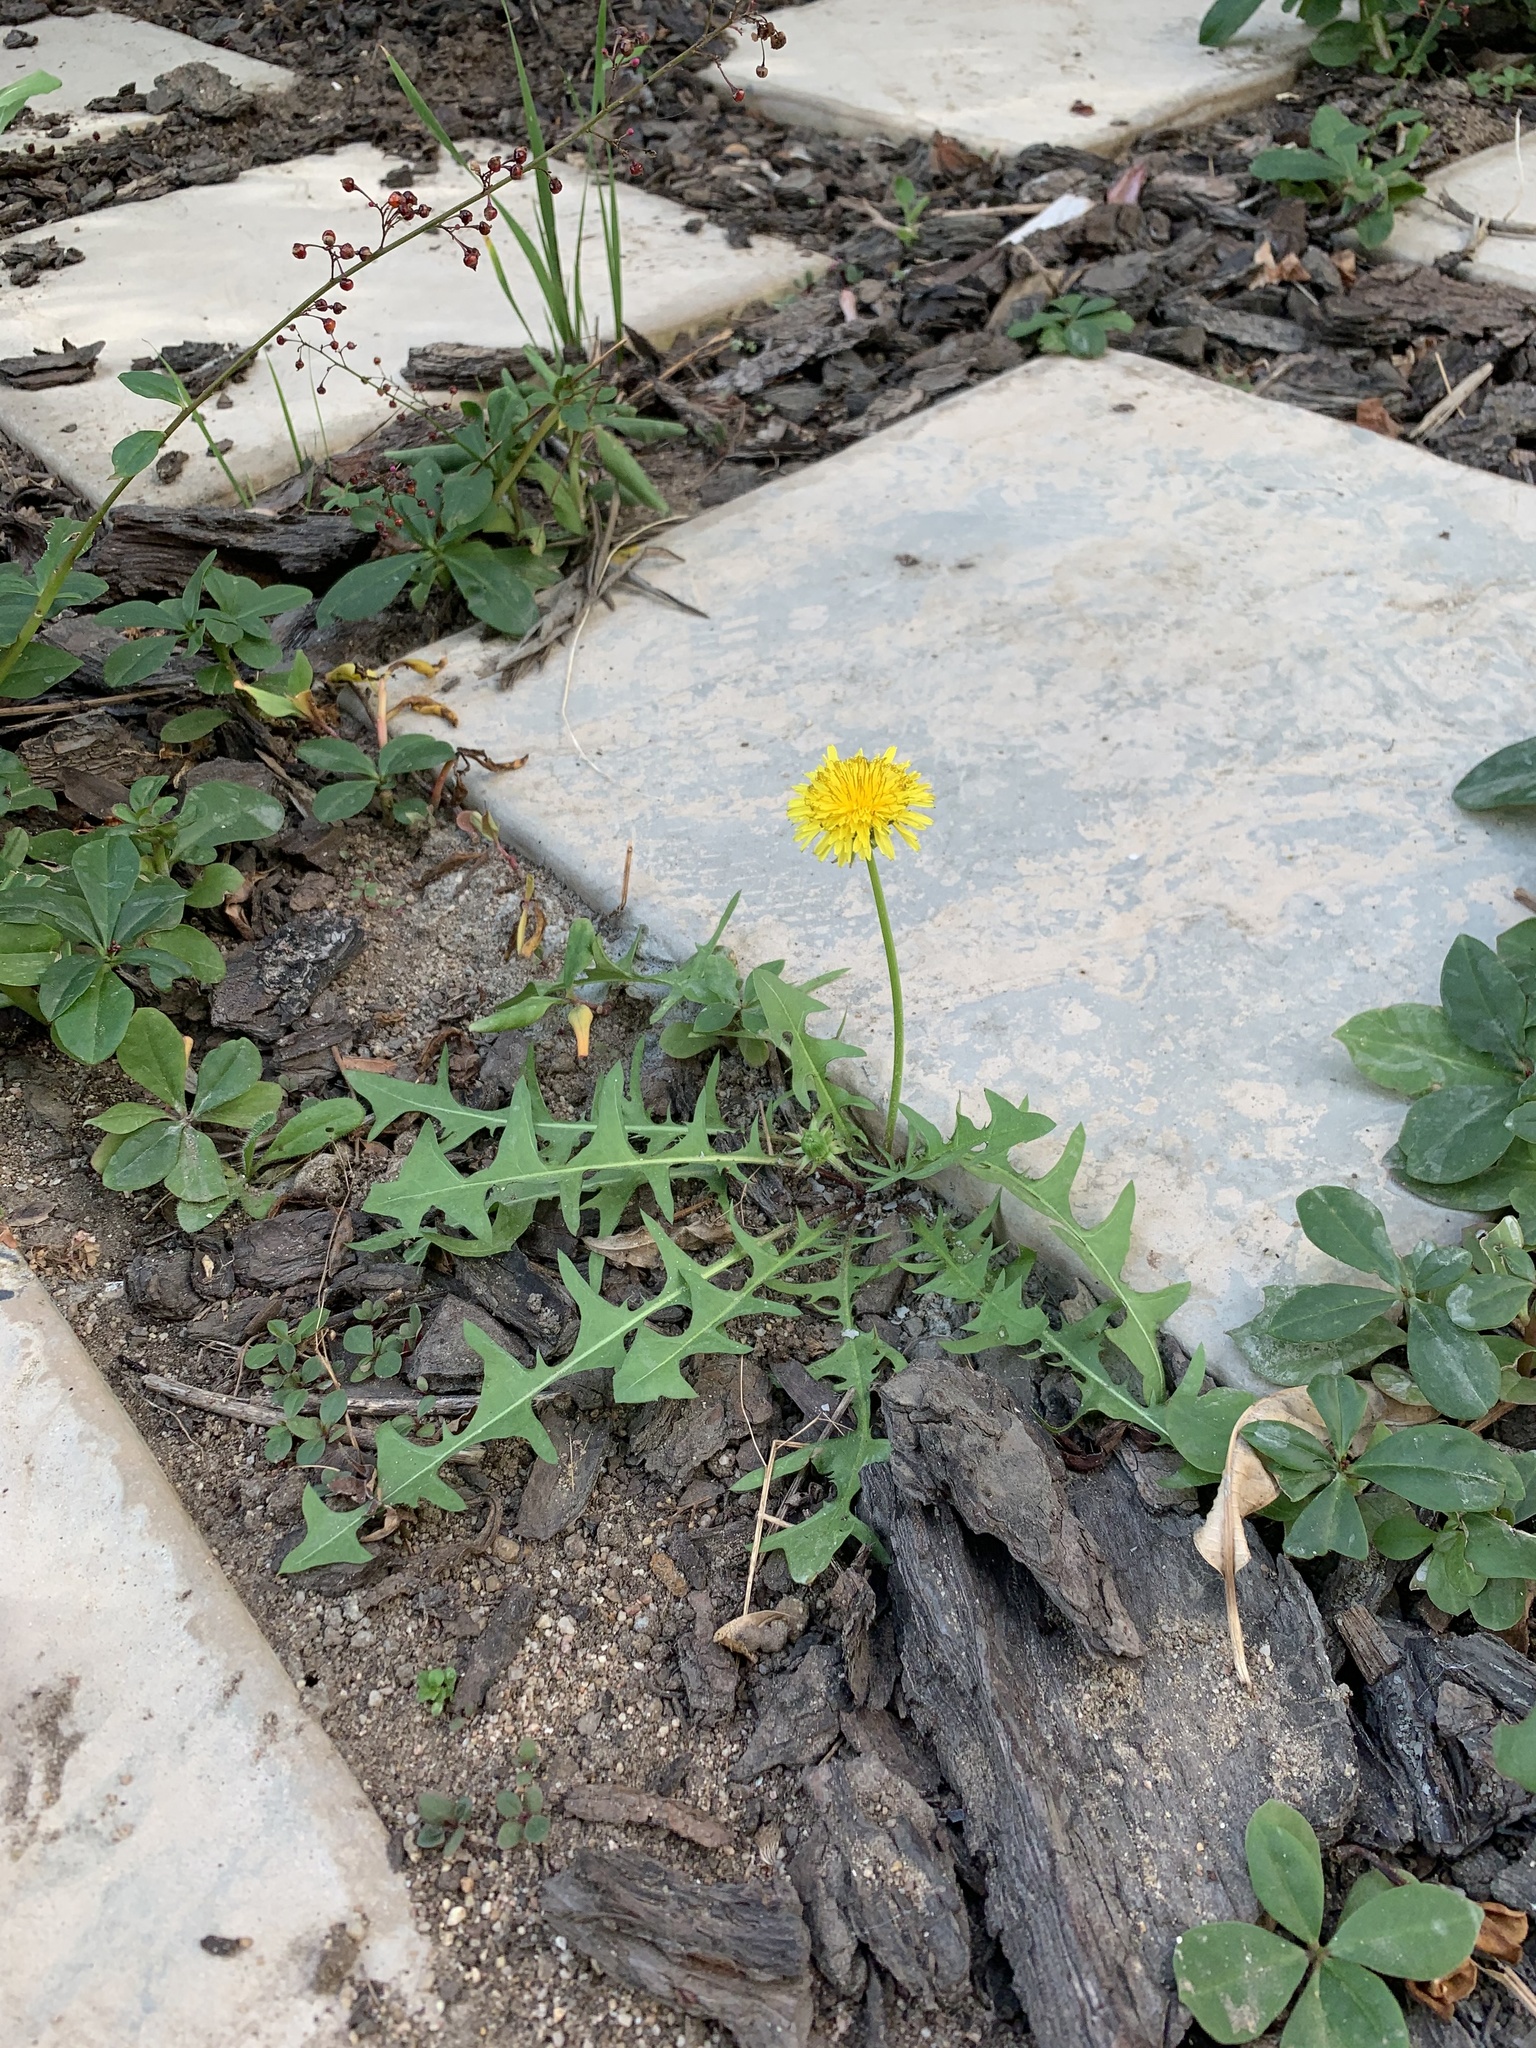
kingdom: Plantae
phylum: Tracheophyta
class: Magnoliopsida
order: Asterales
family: Asteraceae
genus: Taraxacum
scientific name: Taraxacum officinale
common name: Common dandelion
